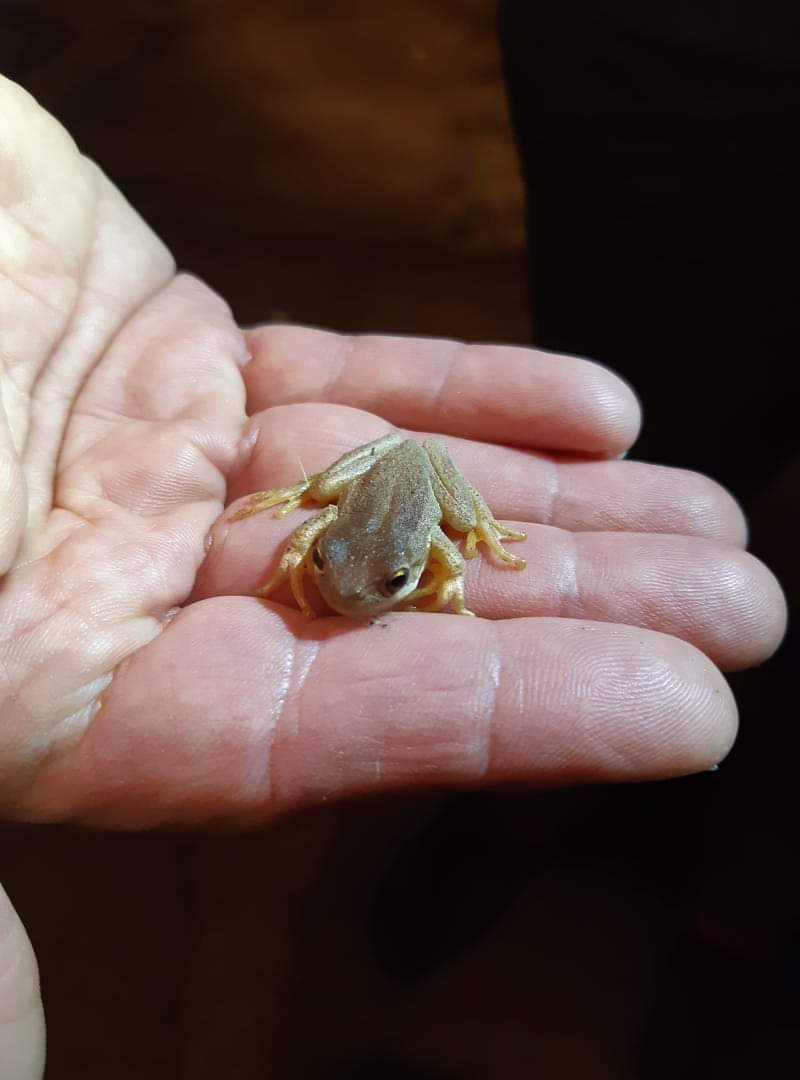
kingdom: Animalia
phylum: Chordata
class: Amphibia
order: Anura
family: Pelodryadidae
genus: Litoria
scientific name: Litoria ewingii
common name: Southern brown tree frog
